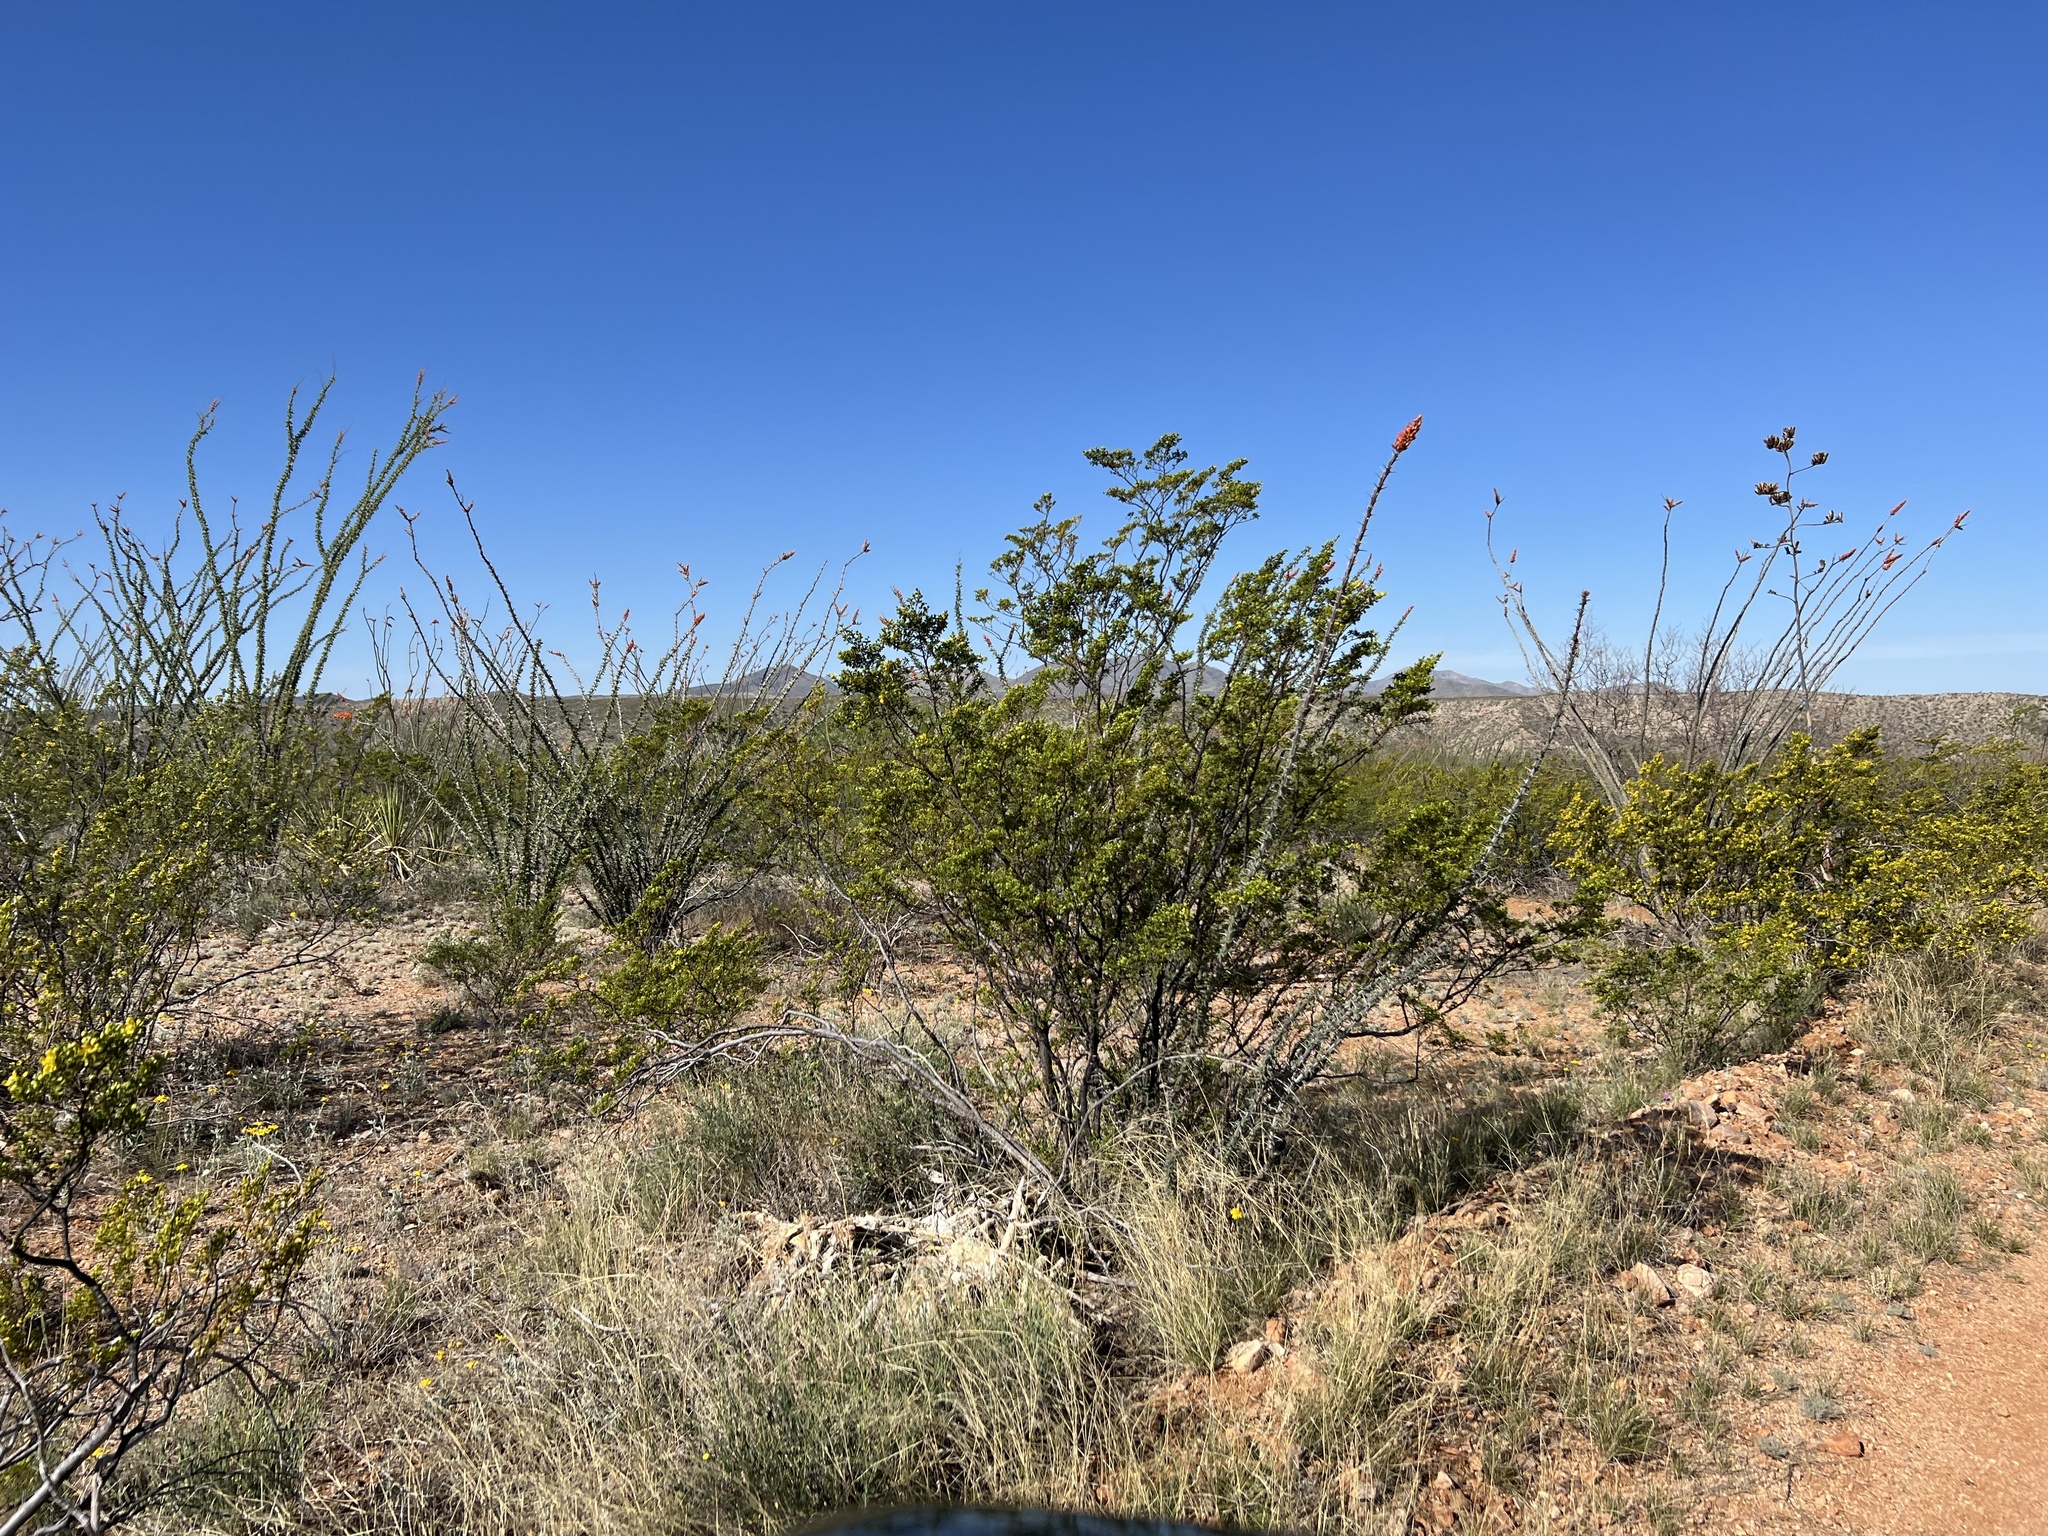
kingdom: Plantae
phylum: Tracheophyta
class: Magnoliopsida
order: Zygophyllales
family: Zygophyllaceae
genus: Larrea
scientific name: Larrea tridentata
